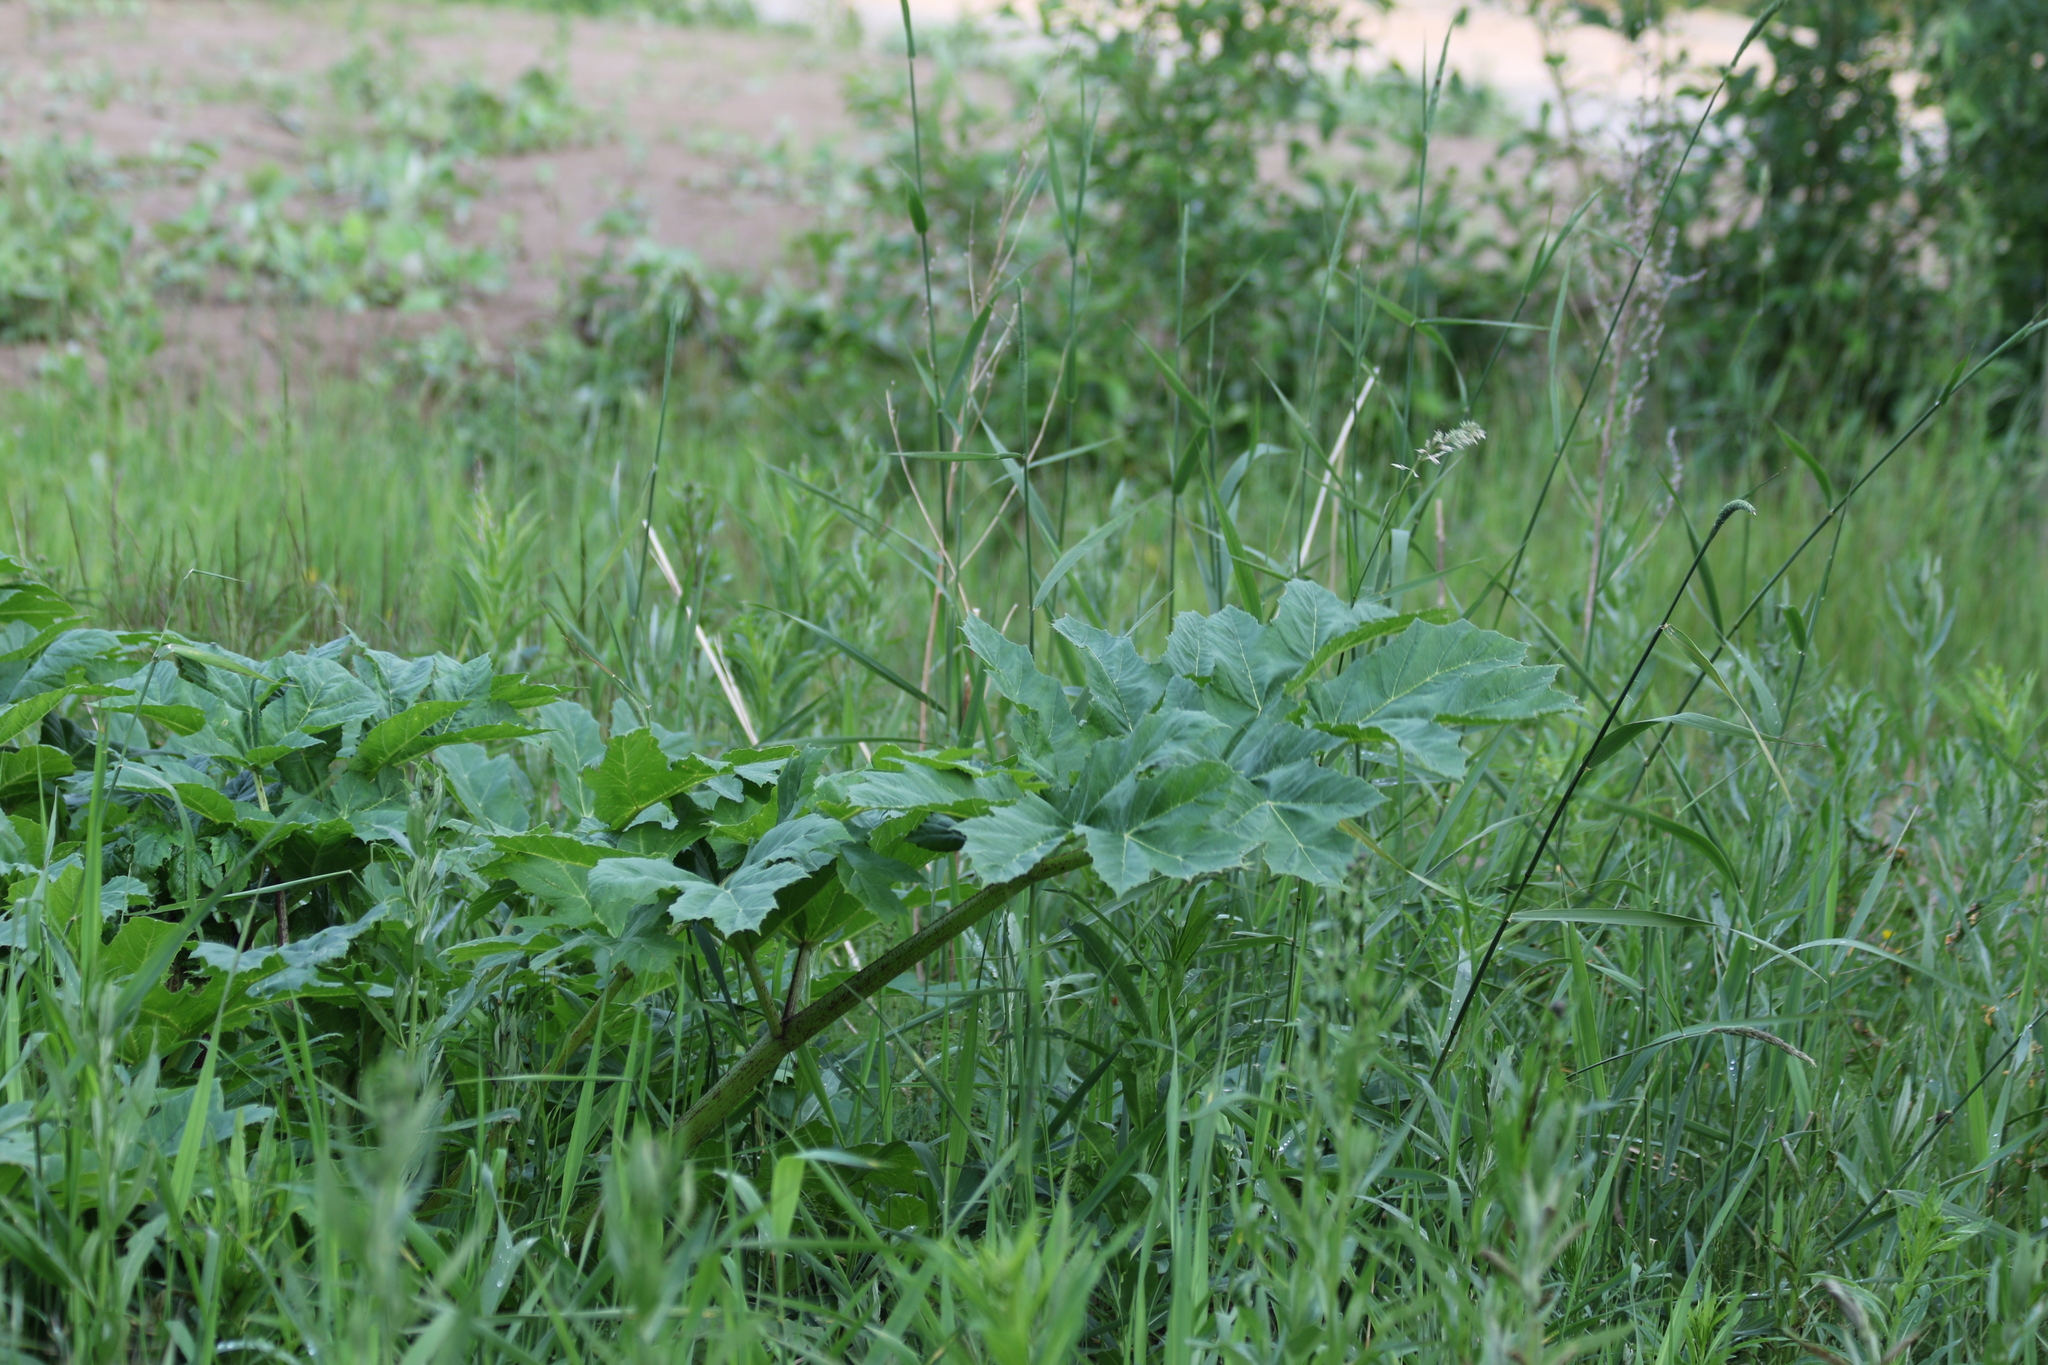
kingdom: Plantae
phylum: Tracheophyta
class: Magnoliopsida
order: Apiales
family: Apiaceae
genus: Heracleum
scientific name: Heracleum sosnowskyi
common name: Sosnowsky's hogweed
